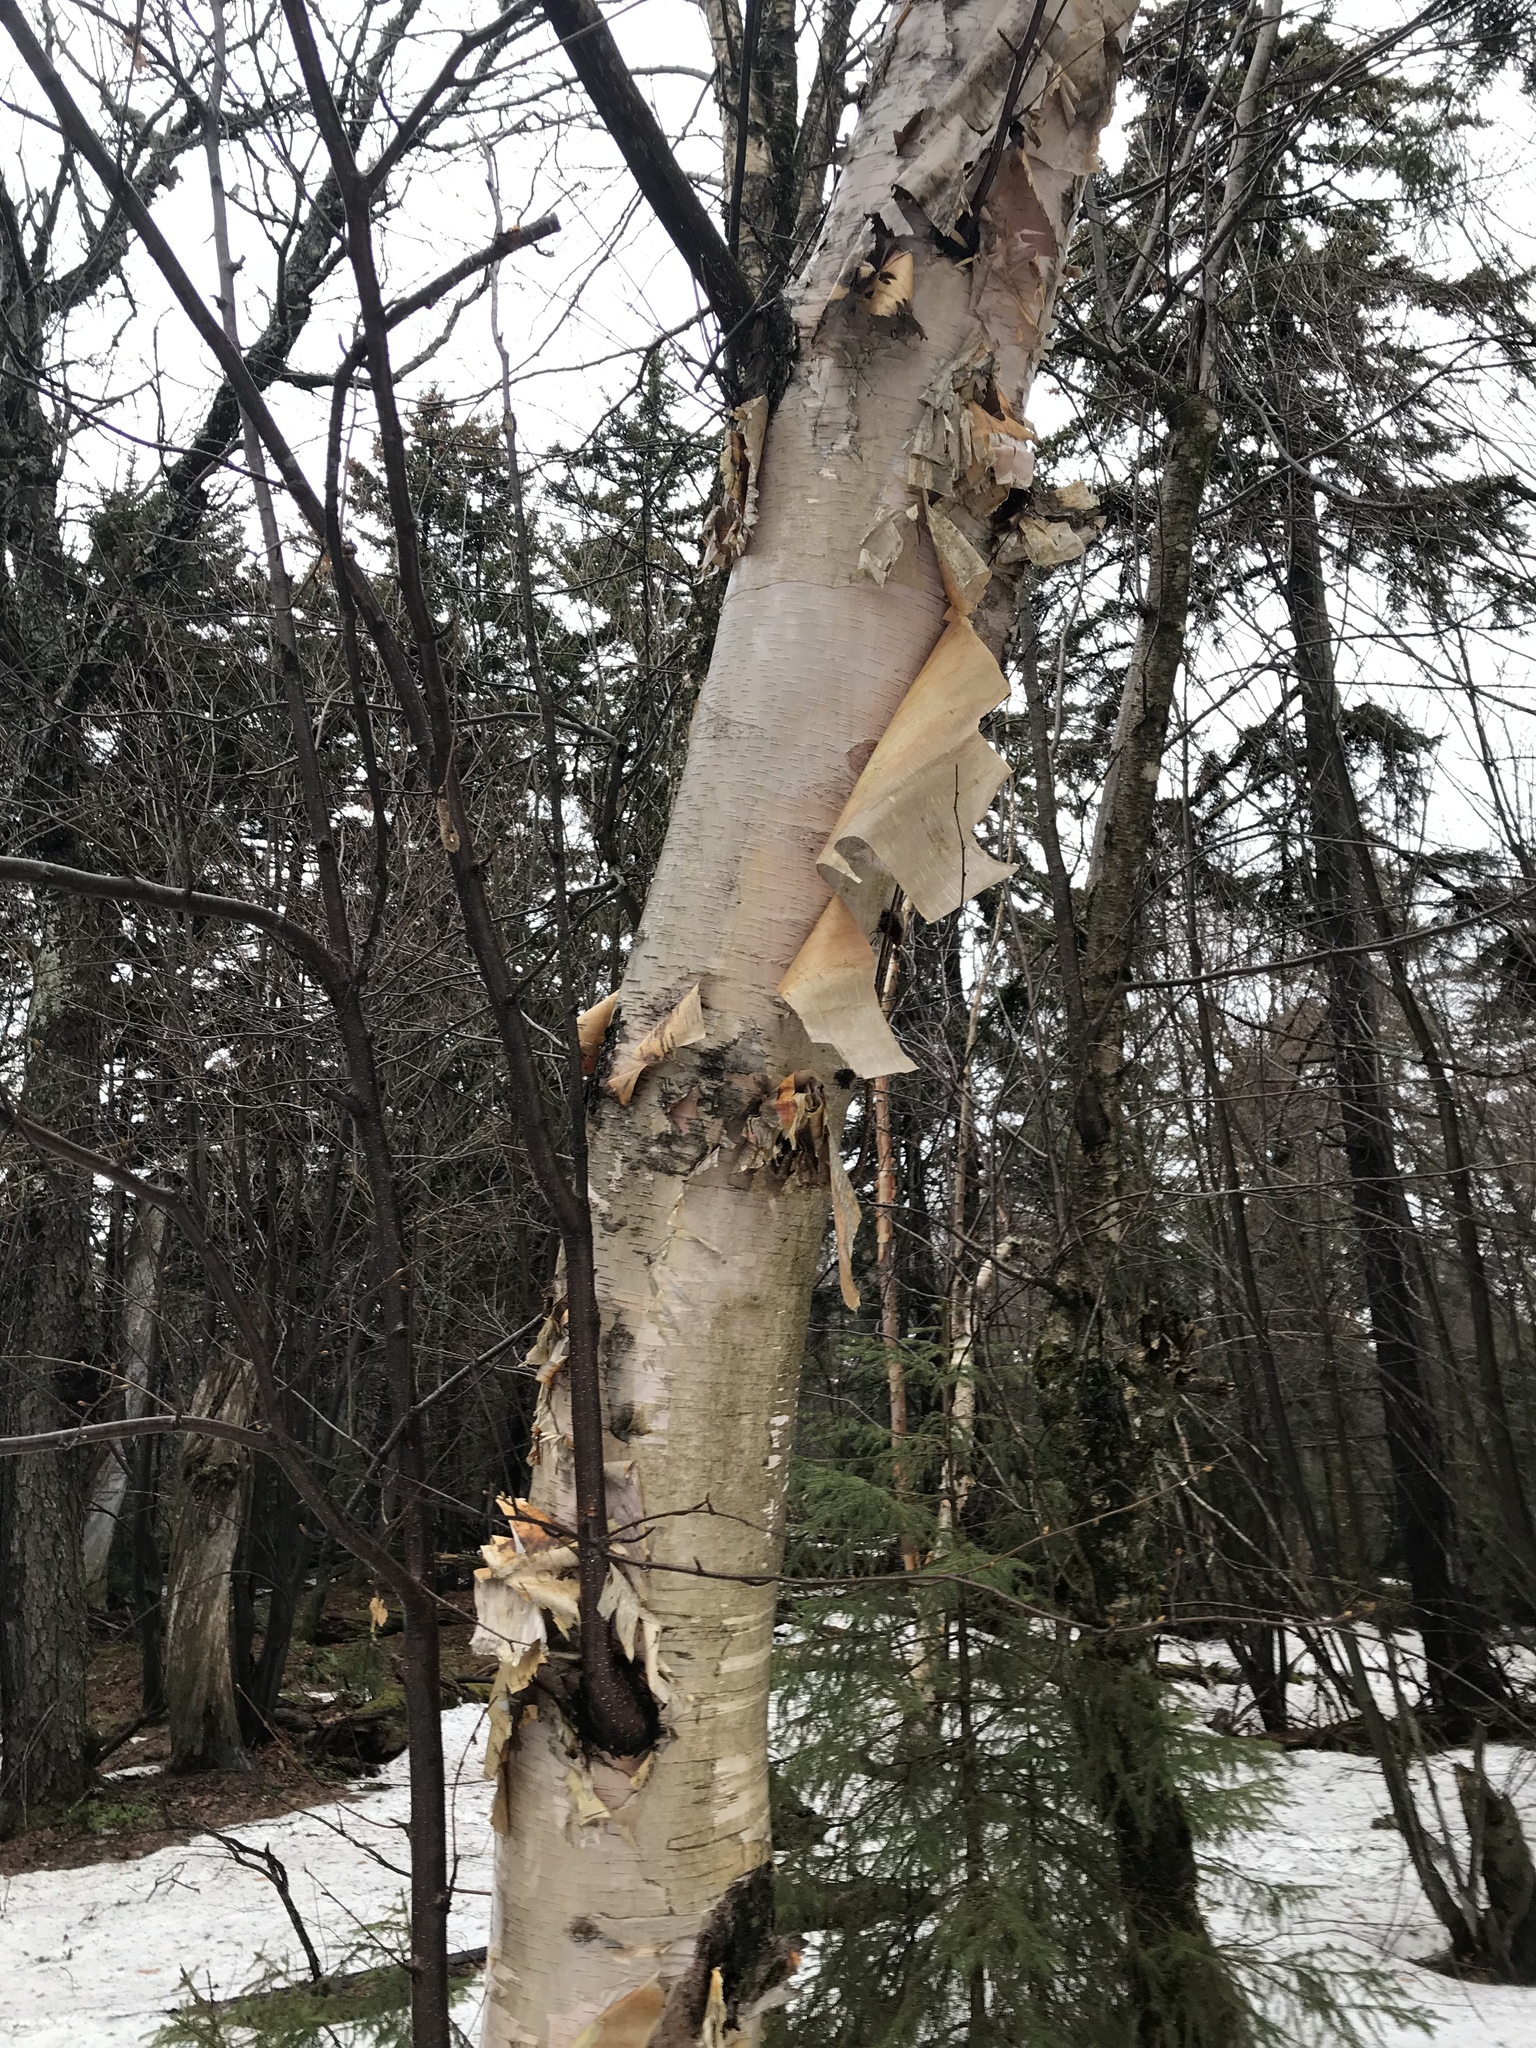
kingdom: Plantae
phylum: Tracheophyta
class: Magnoliopsida
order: Fagales
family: Betulaceae
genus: Betula
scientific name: Betula cordifolia
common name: Mountain white birch
